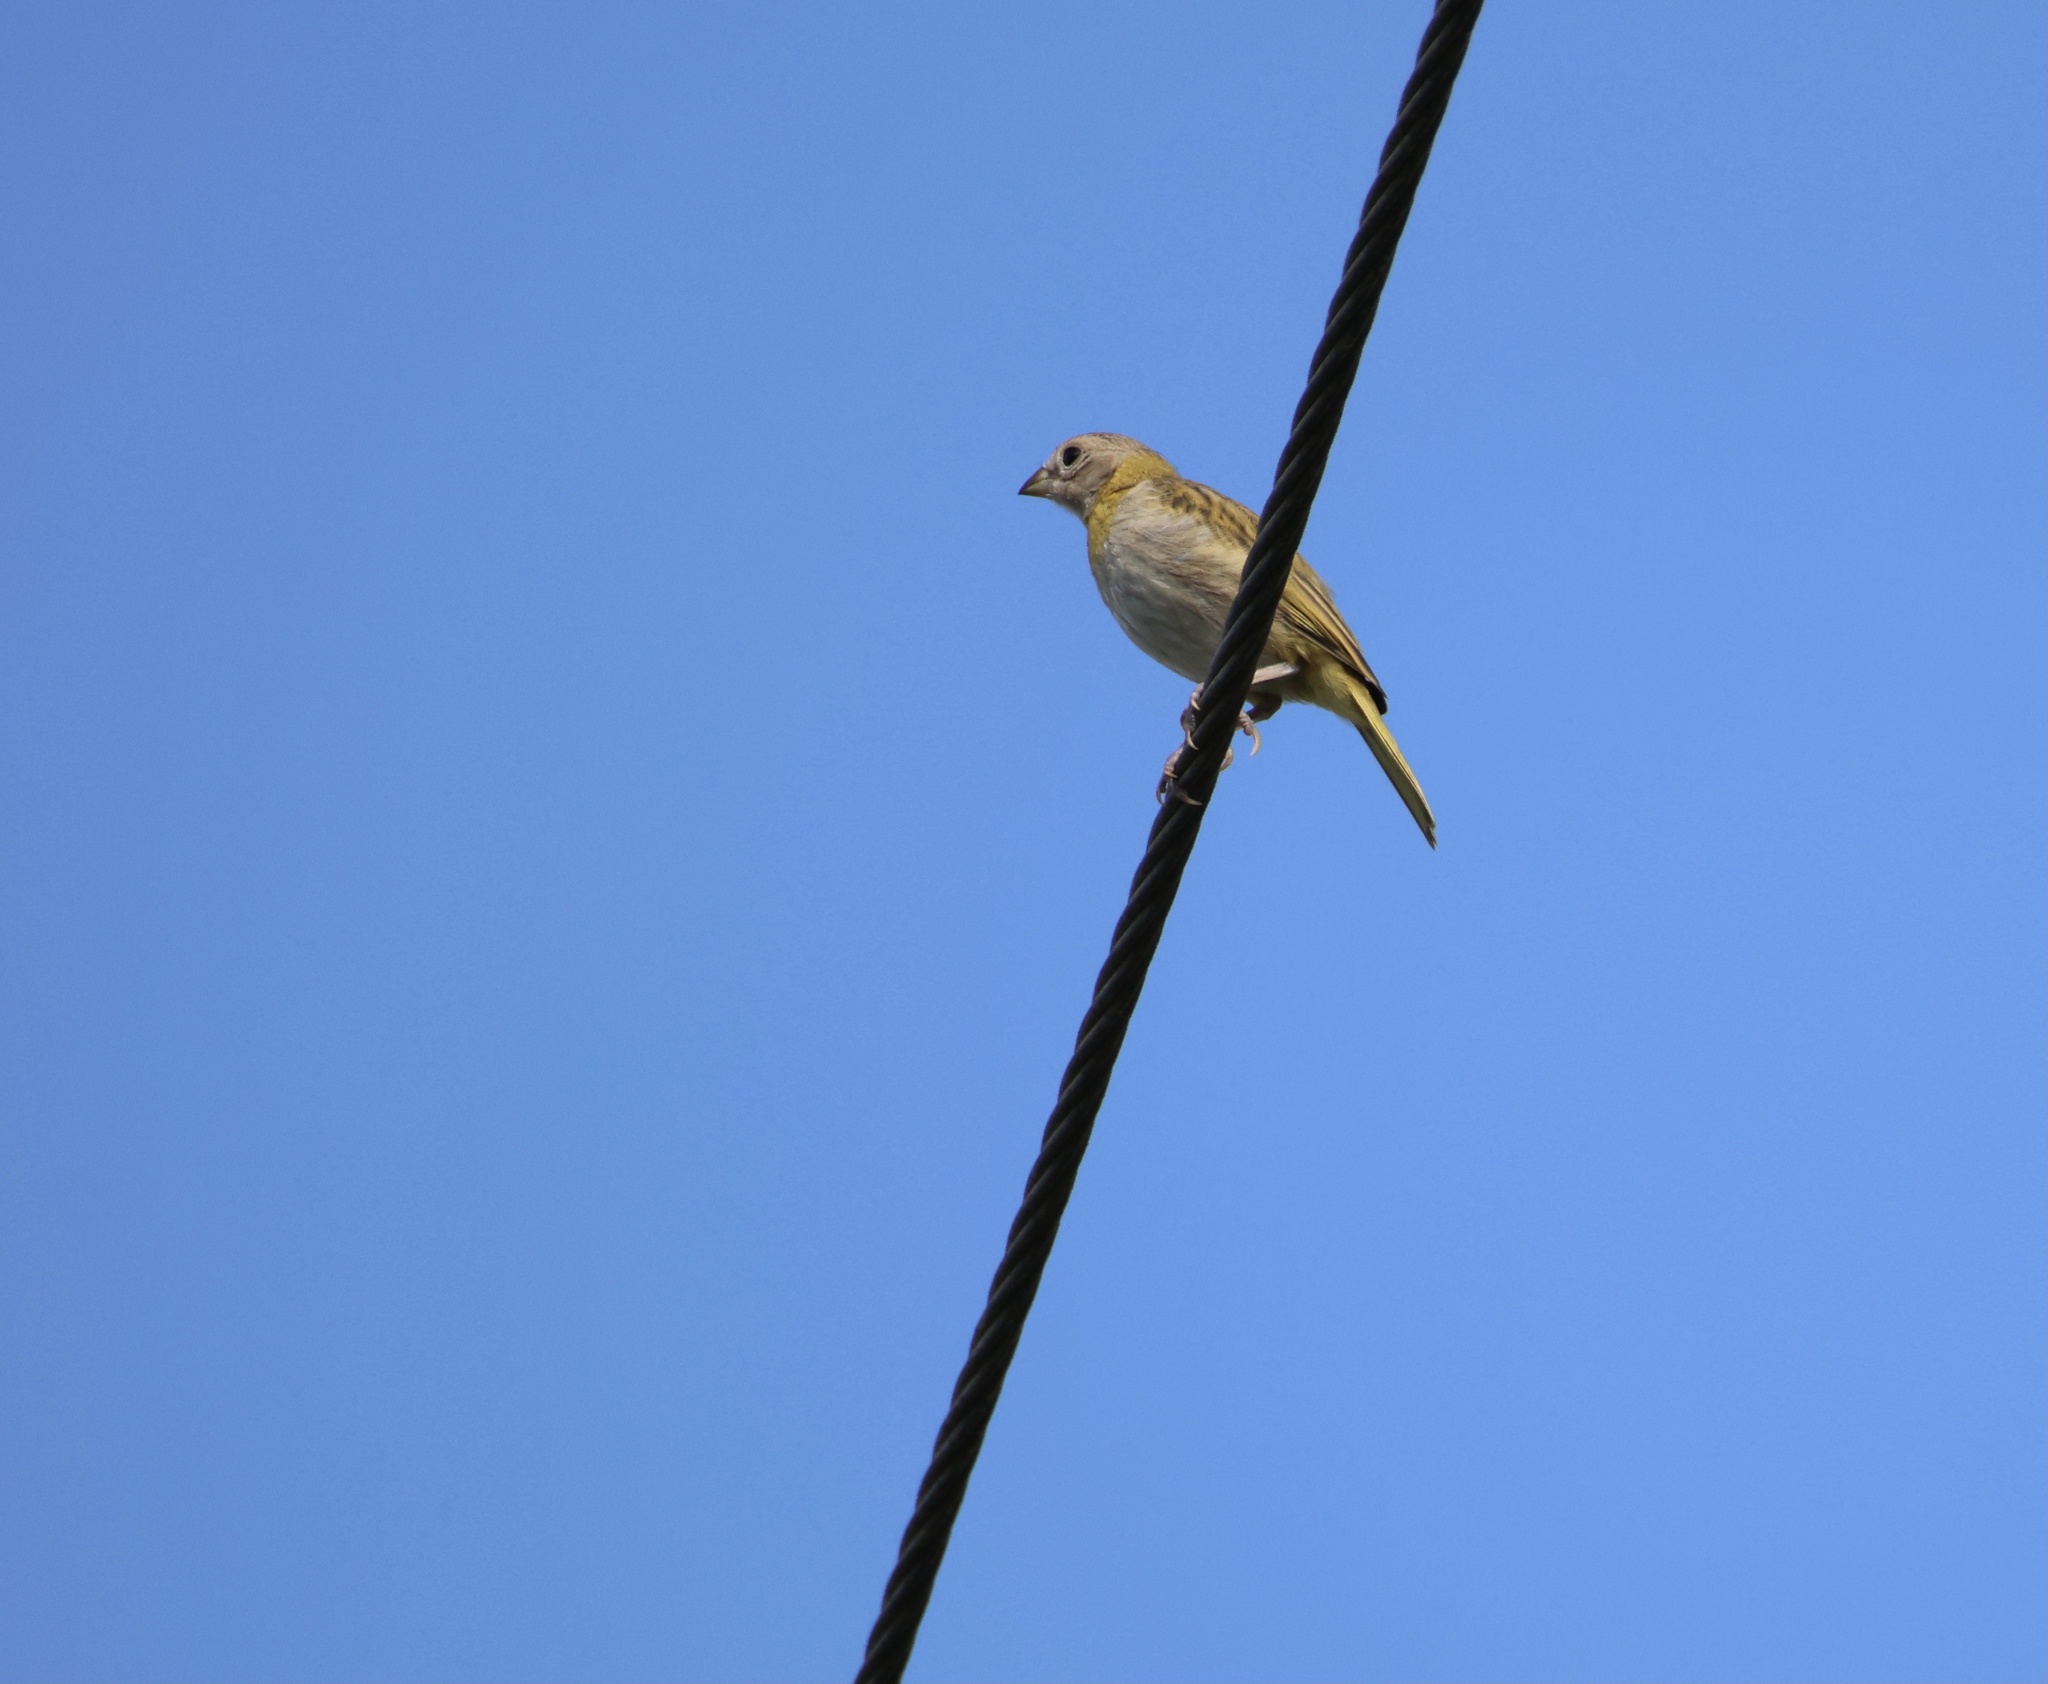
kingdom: Animalia
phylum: Chordata
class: Aves
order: Passeriformes
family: Thraupidae
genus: Sicalis
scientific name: Sicalis flaveola
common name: Saffron finch
